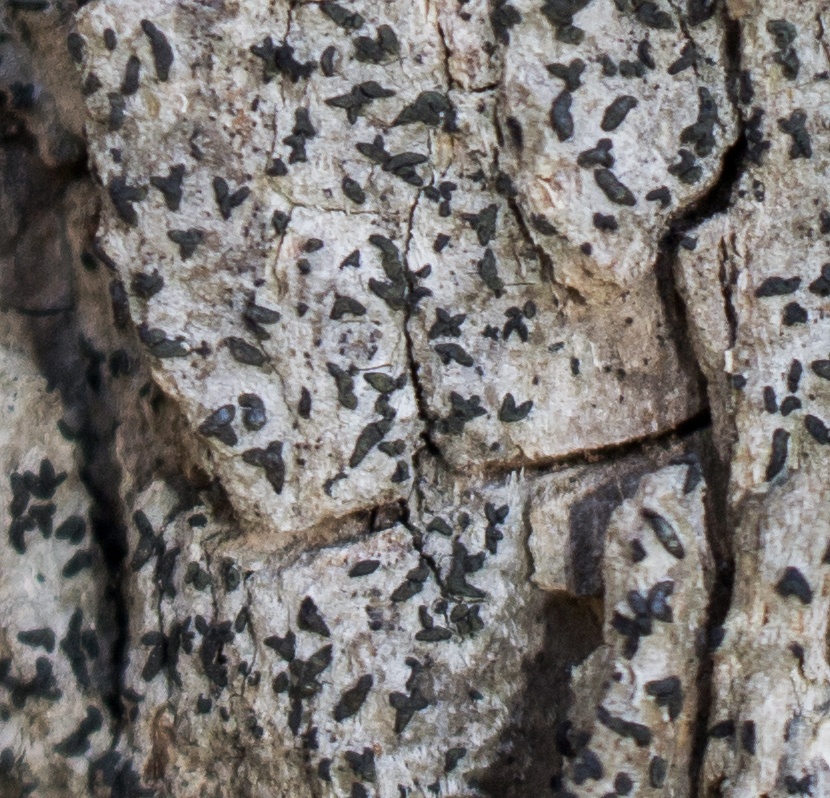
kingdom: Fungi
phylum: Ascomycota
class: Arthoniomycetes
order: Arthoniales
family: Lecanographaceae
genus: Alyxoria
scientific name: Alyxoria varia
